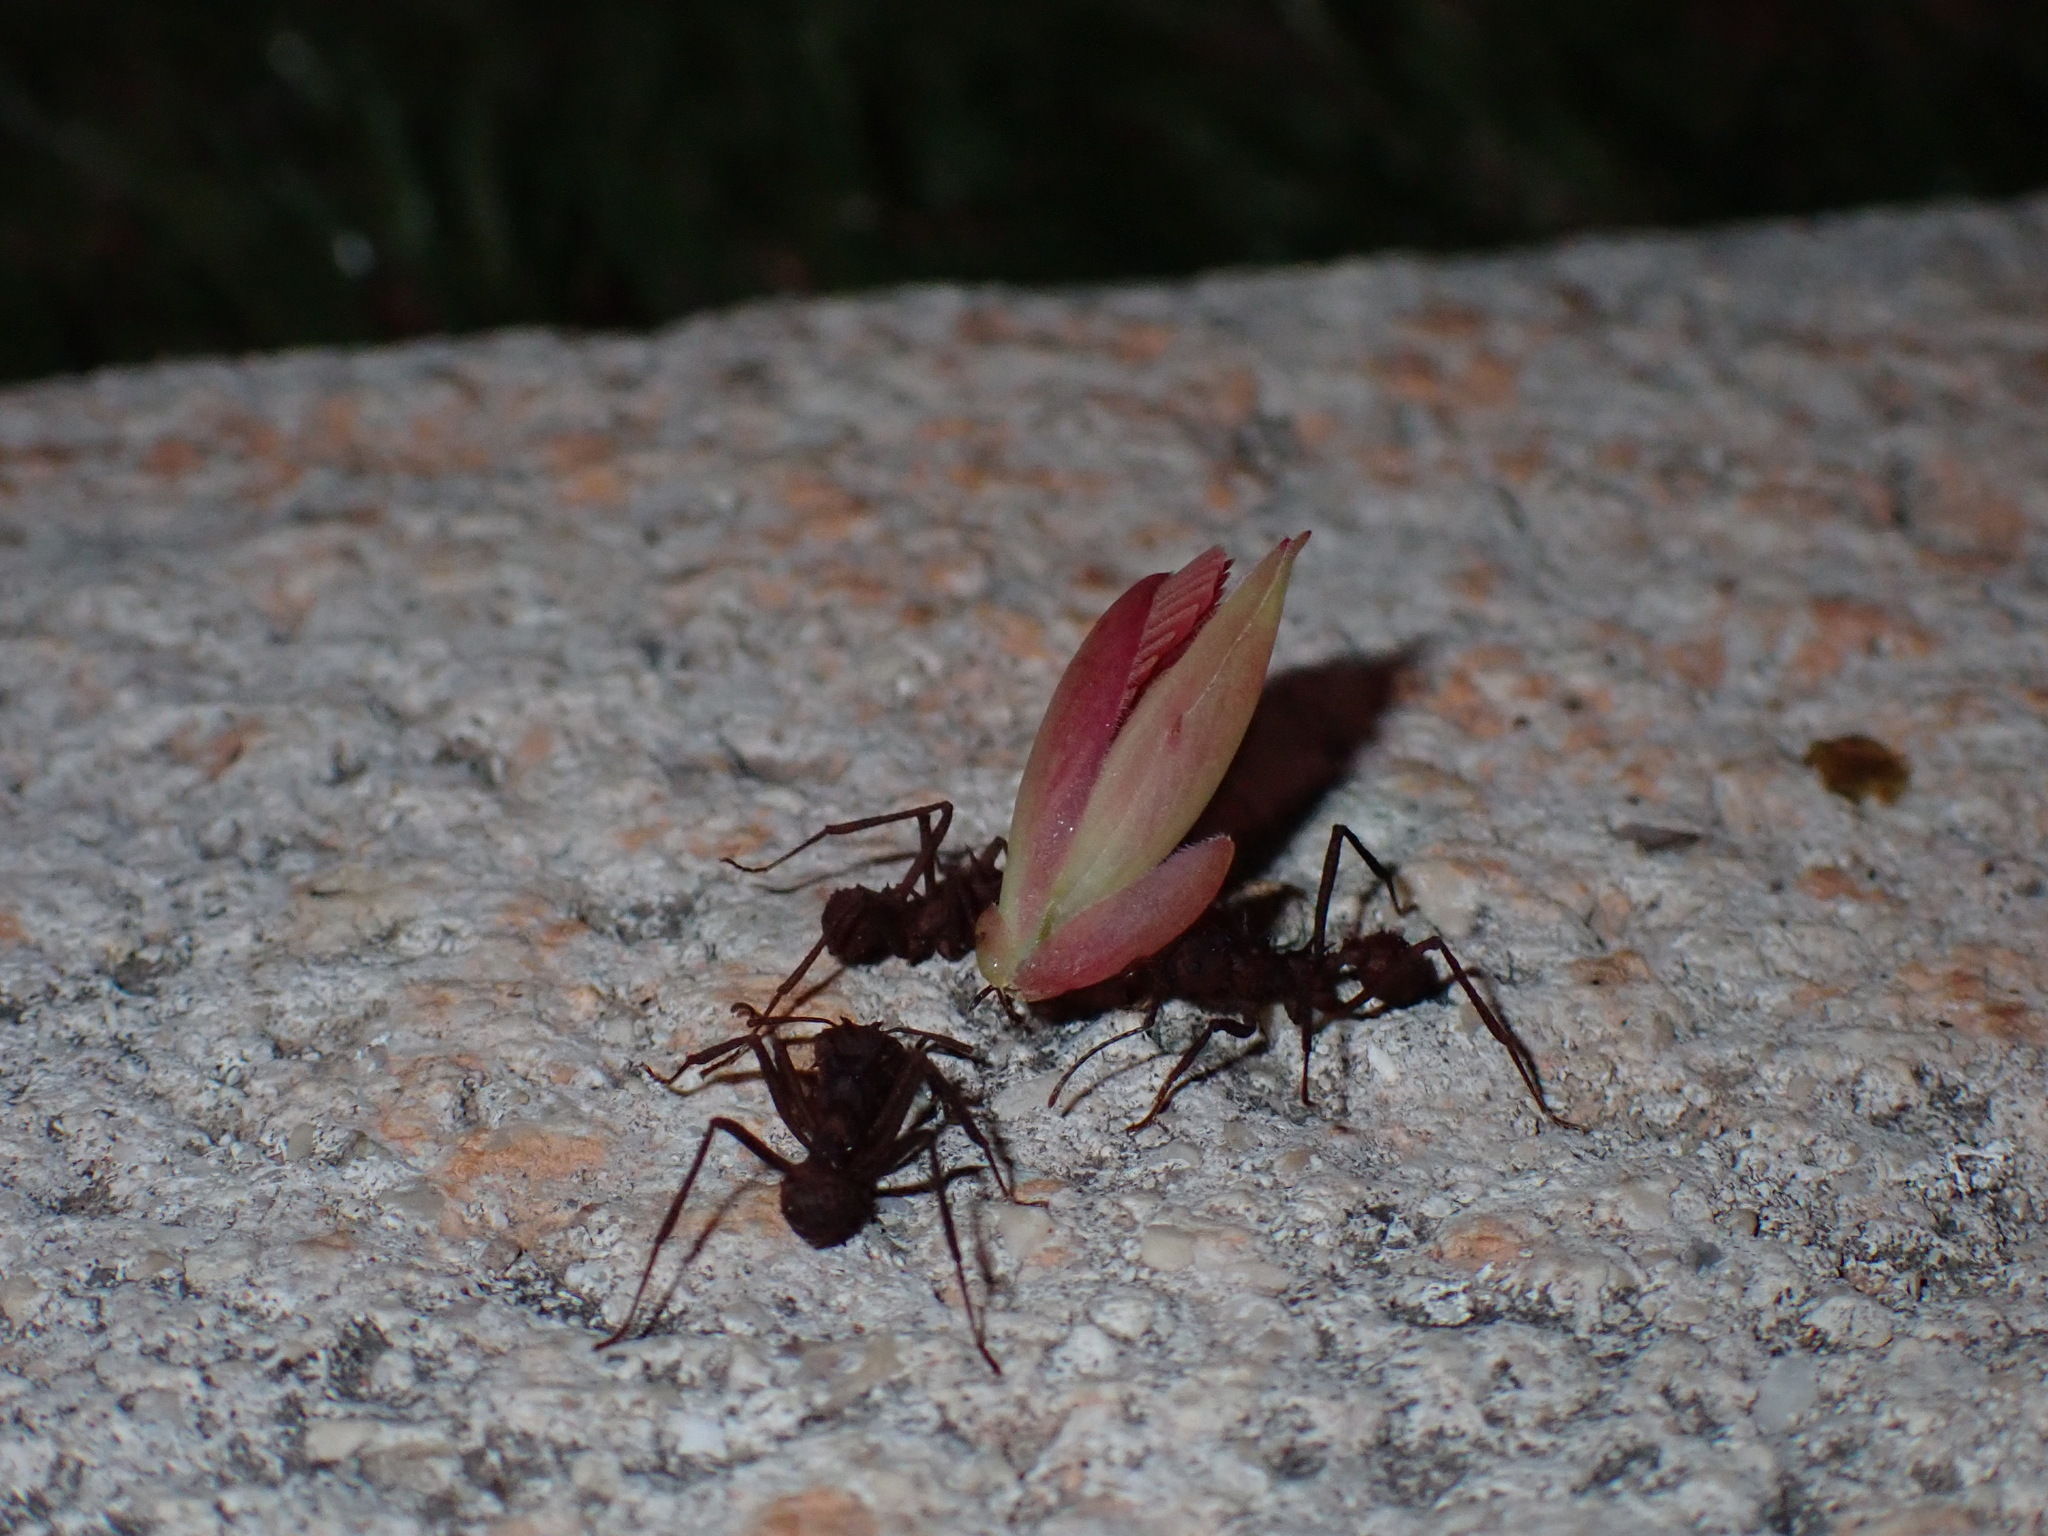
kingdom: Animalia
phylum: Arthropoda
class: Insecta
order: Hymenoptera
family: Formicidae
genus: Acromyrmex
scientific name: Acromyrmex octospinosus
